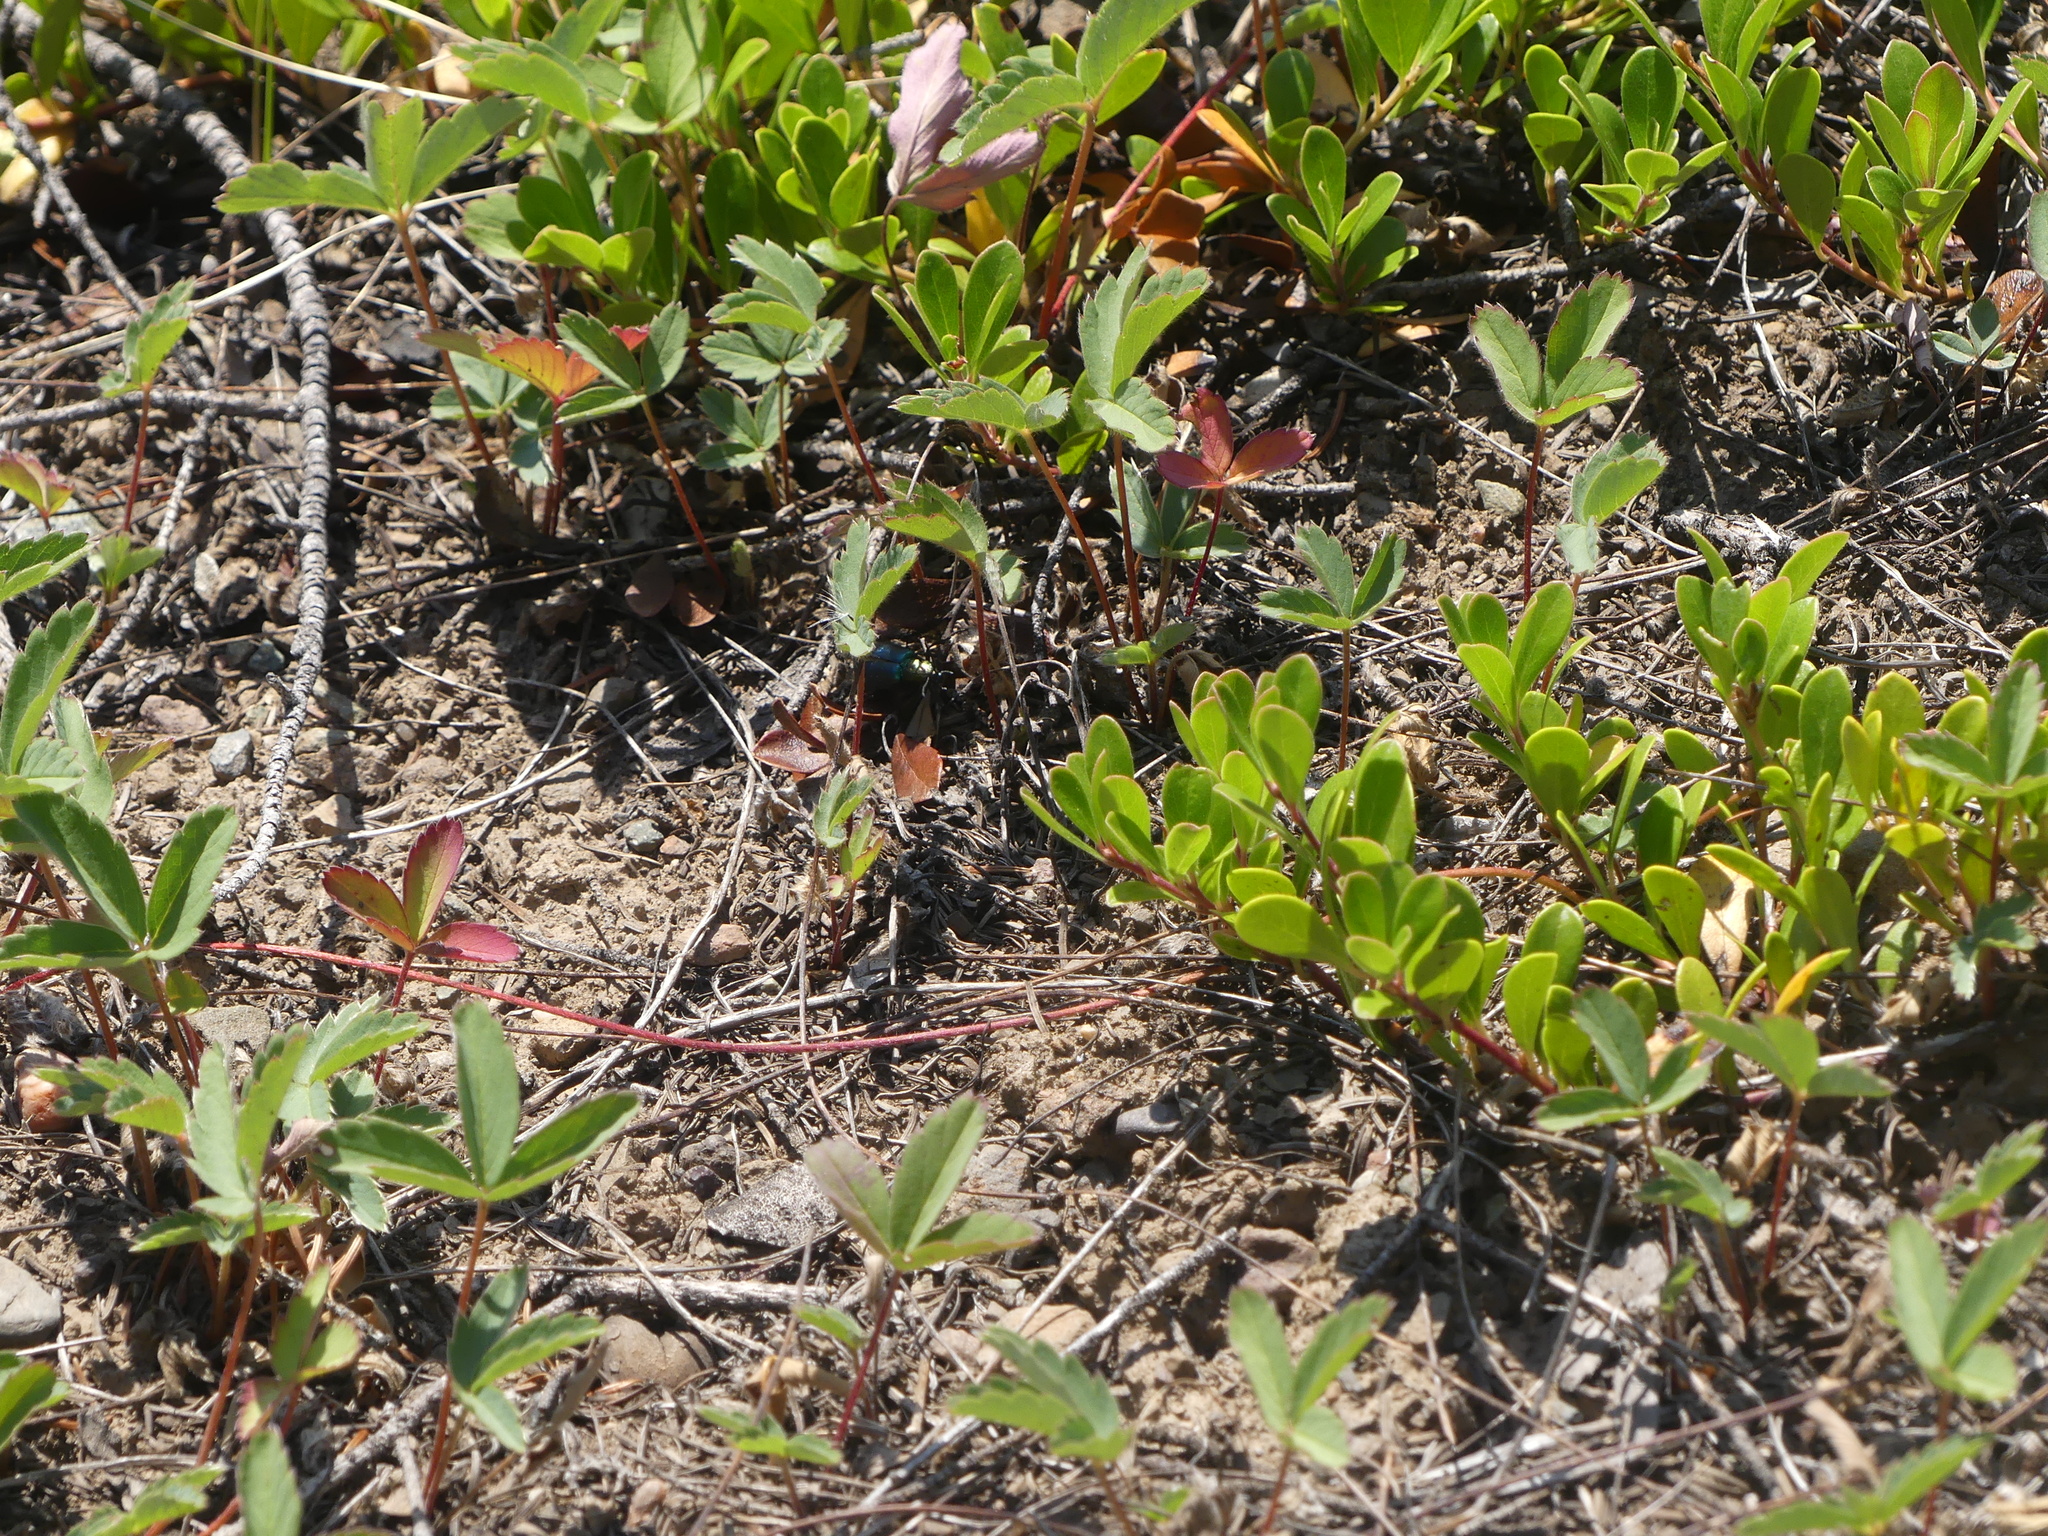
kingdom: Plantae
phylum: Tracheophyta
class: Magnoliopsida
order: Ericales
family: Ericaceae
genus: Arctostaphylos
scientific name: Arctostaphylos uva-ursi
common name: Bearberry
